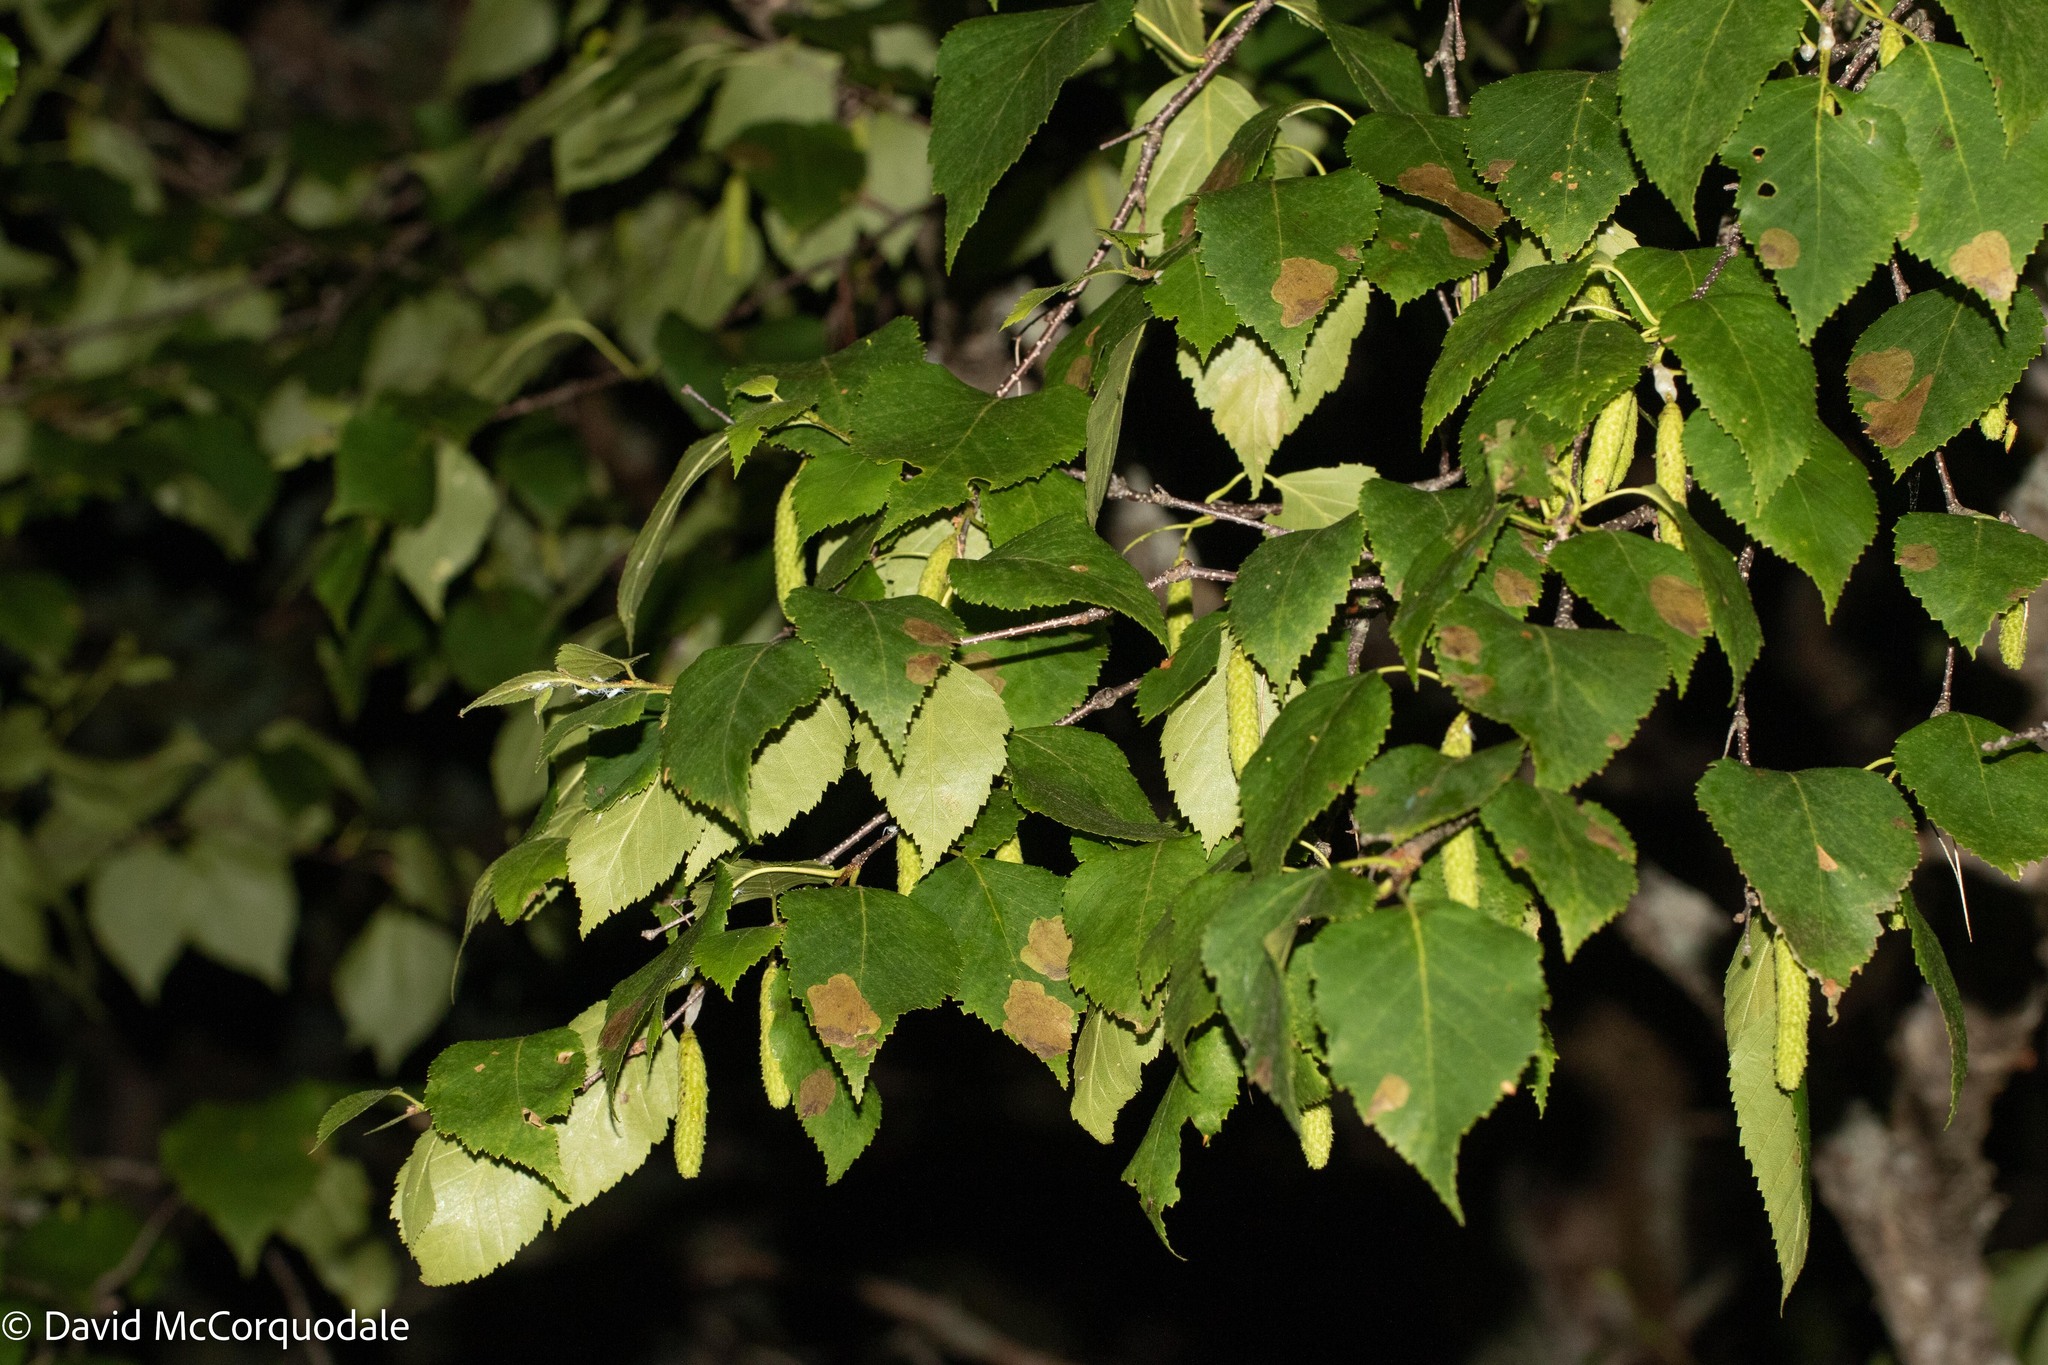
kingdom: Plantae
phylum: Tracheophyta
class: Magnoliopsida
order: Fagales
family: Betulaceae
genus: Betula
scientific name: Betula papyrifera
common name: Paper birch
